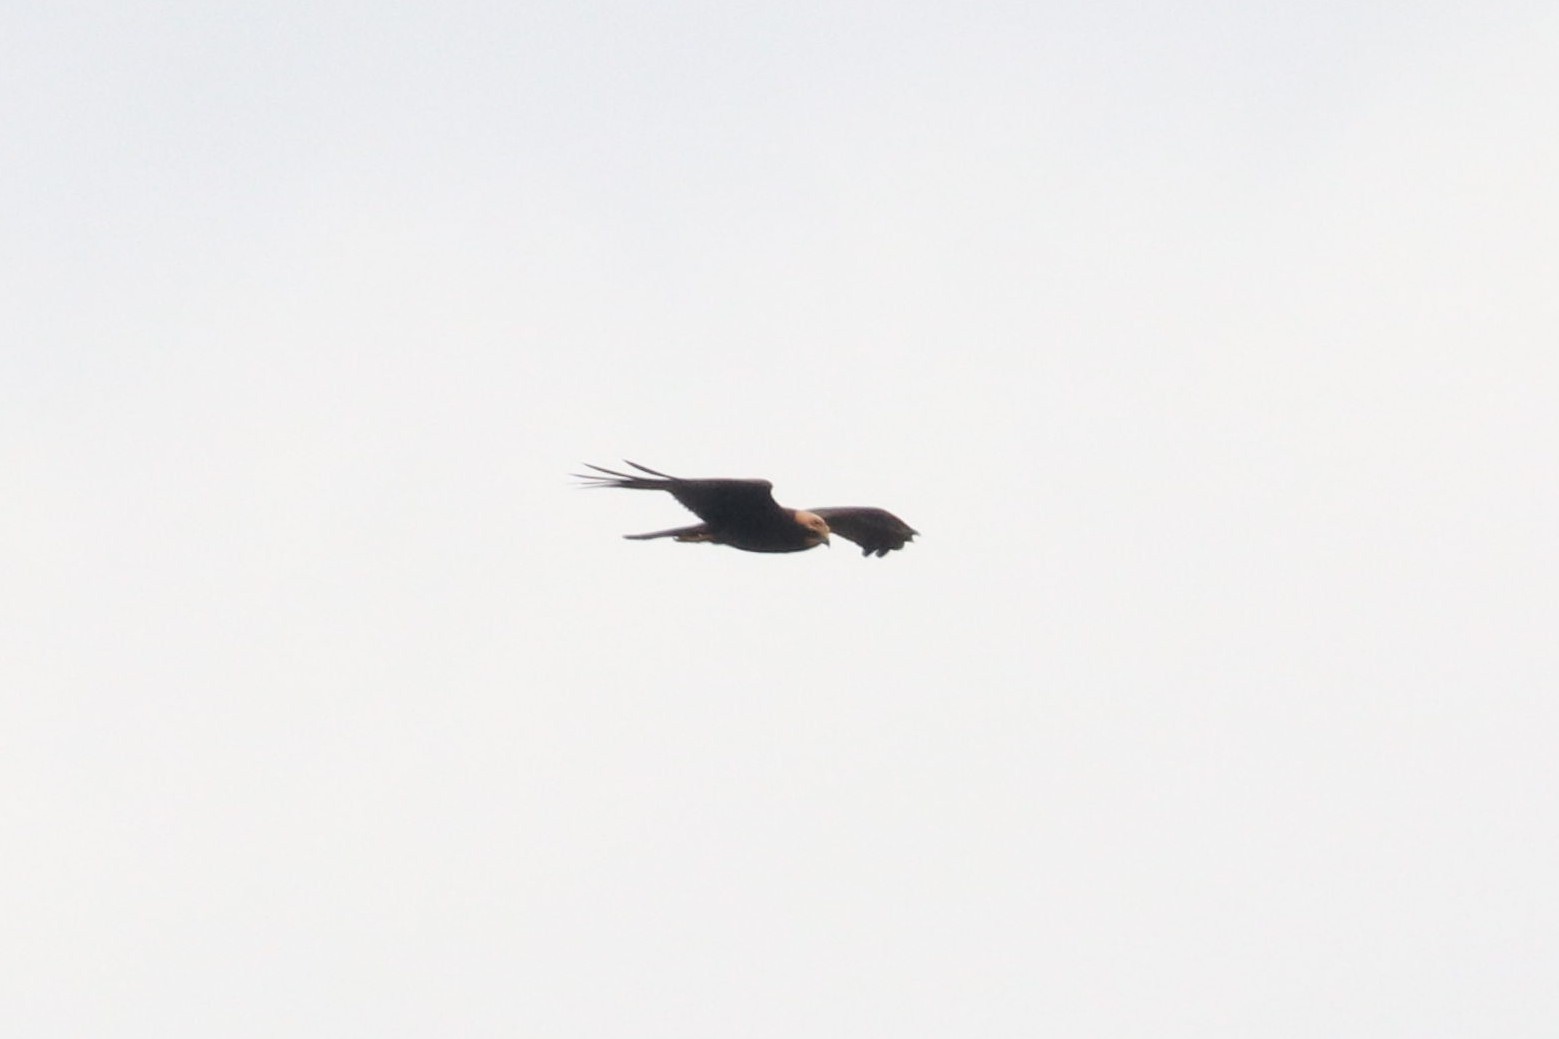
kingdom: Animalia
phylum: Chordata
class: Aves
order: Accipitriformes
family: Accipitridae
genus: Circus
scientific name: Circus aeruginosus
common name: Western marsh harrier
